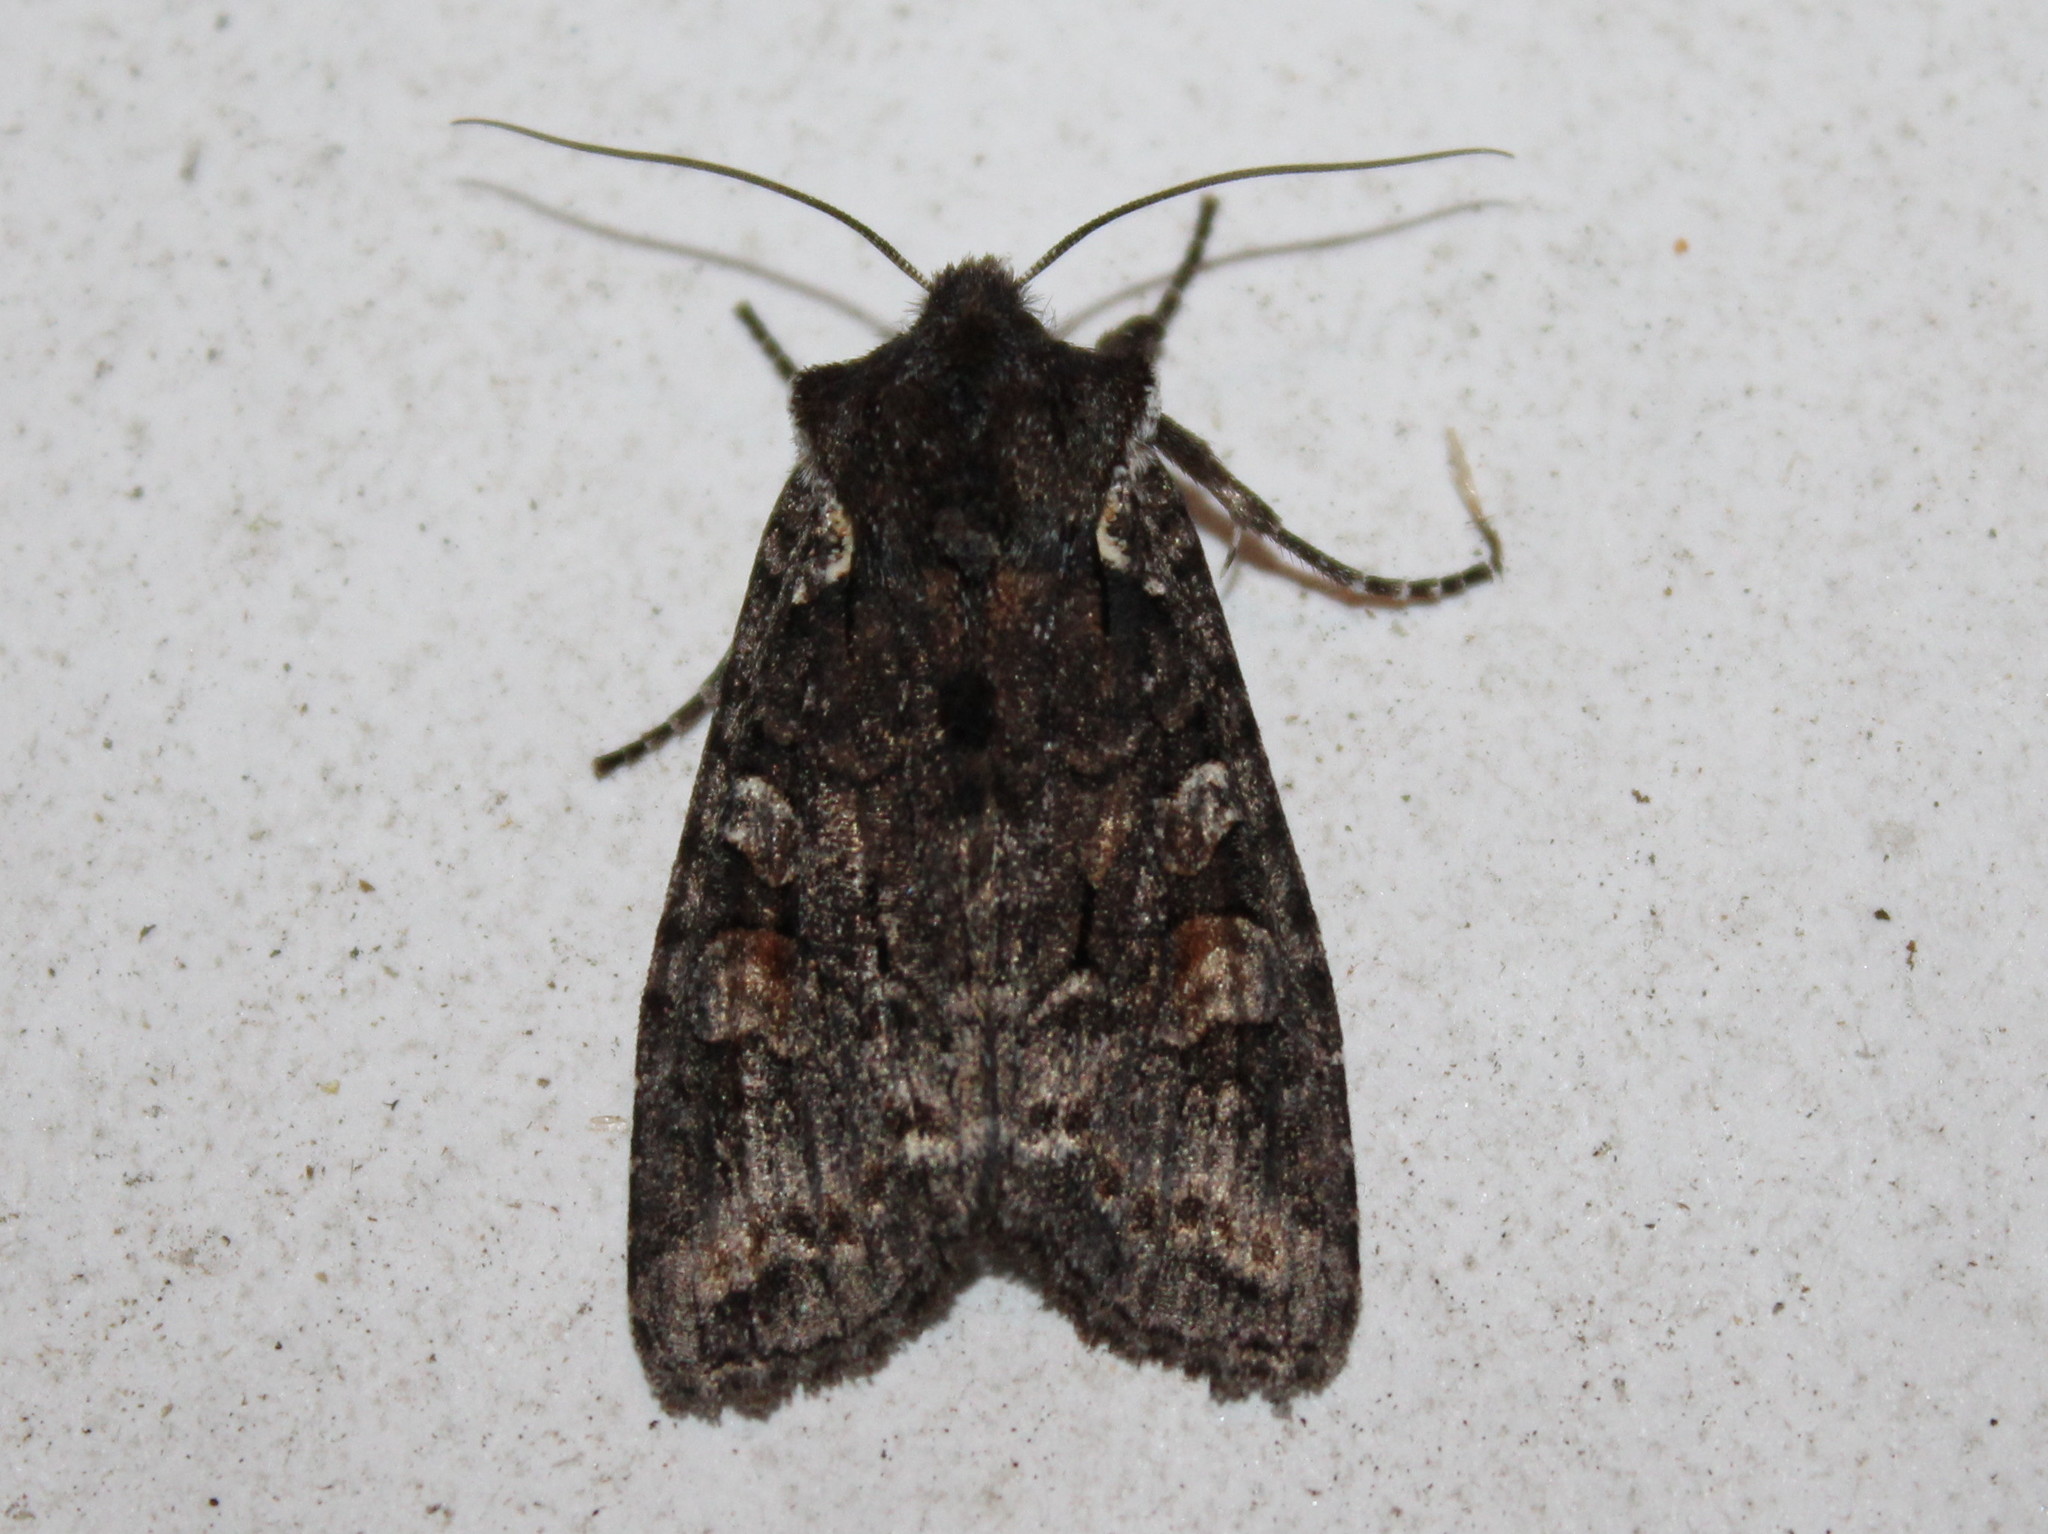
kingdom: Animalia
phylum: Arthropoda
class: Insecta
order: Lepidoptera
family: Noctuidae
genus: Lithophane
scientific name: Lithophane pexata
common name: Plush-naped pinion moth
